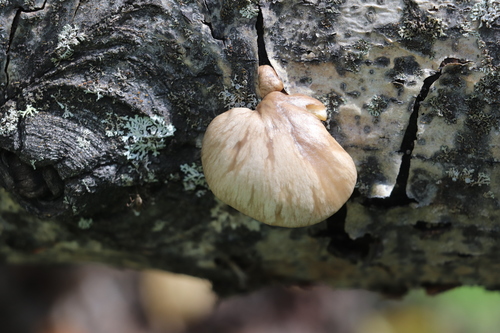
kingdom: Fungi
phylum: Basidiomycota
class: Agaricomycetes
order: Agaricales
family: Pleurotaceae
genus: Pleurotus
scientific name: Pleurotus calyptratus
